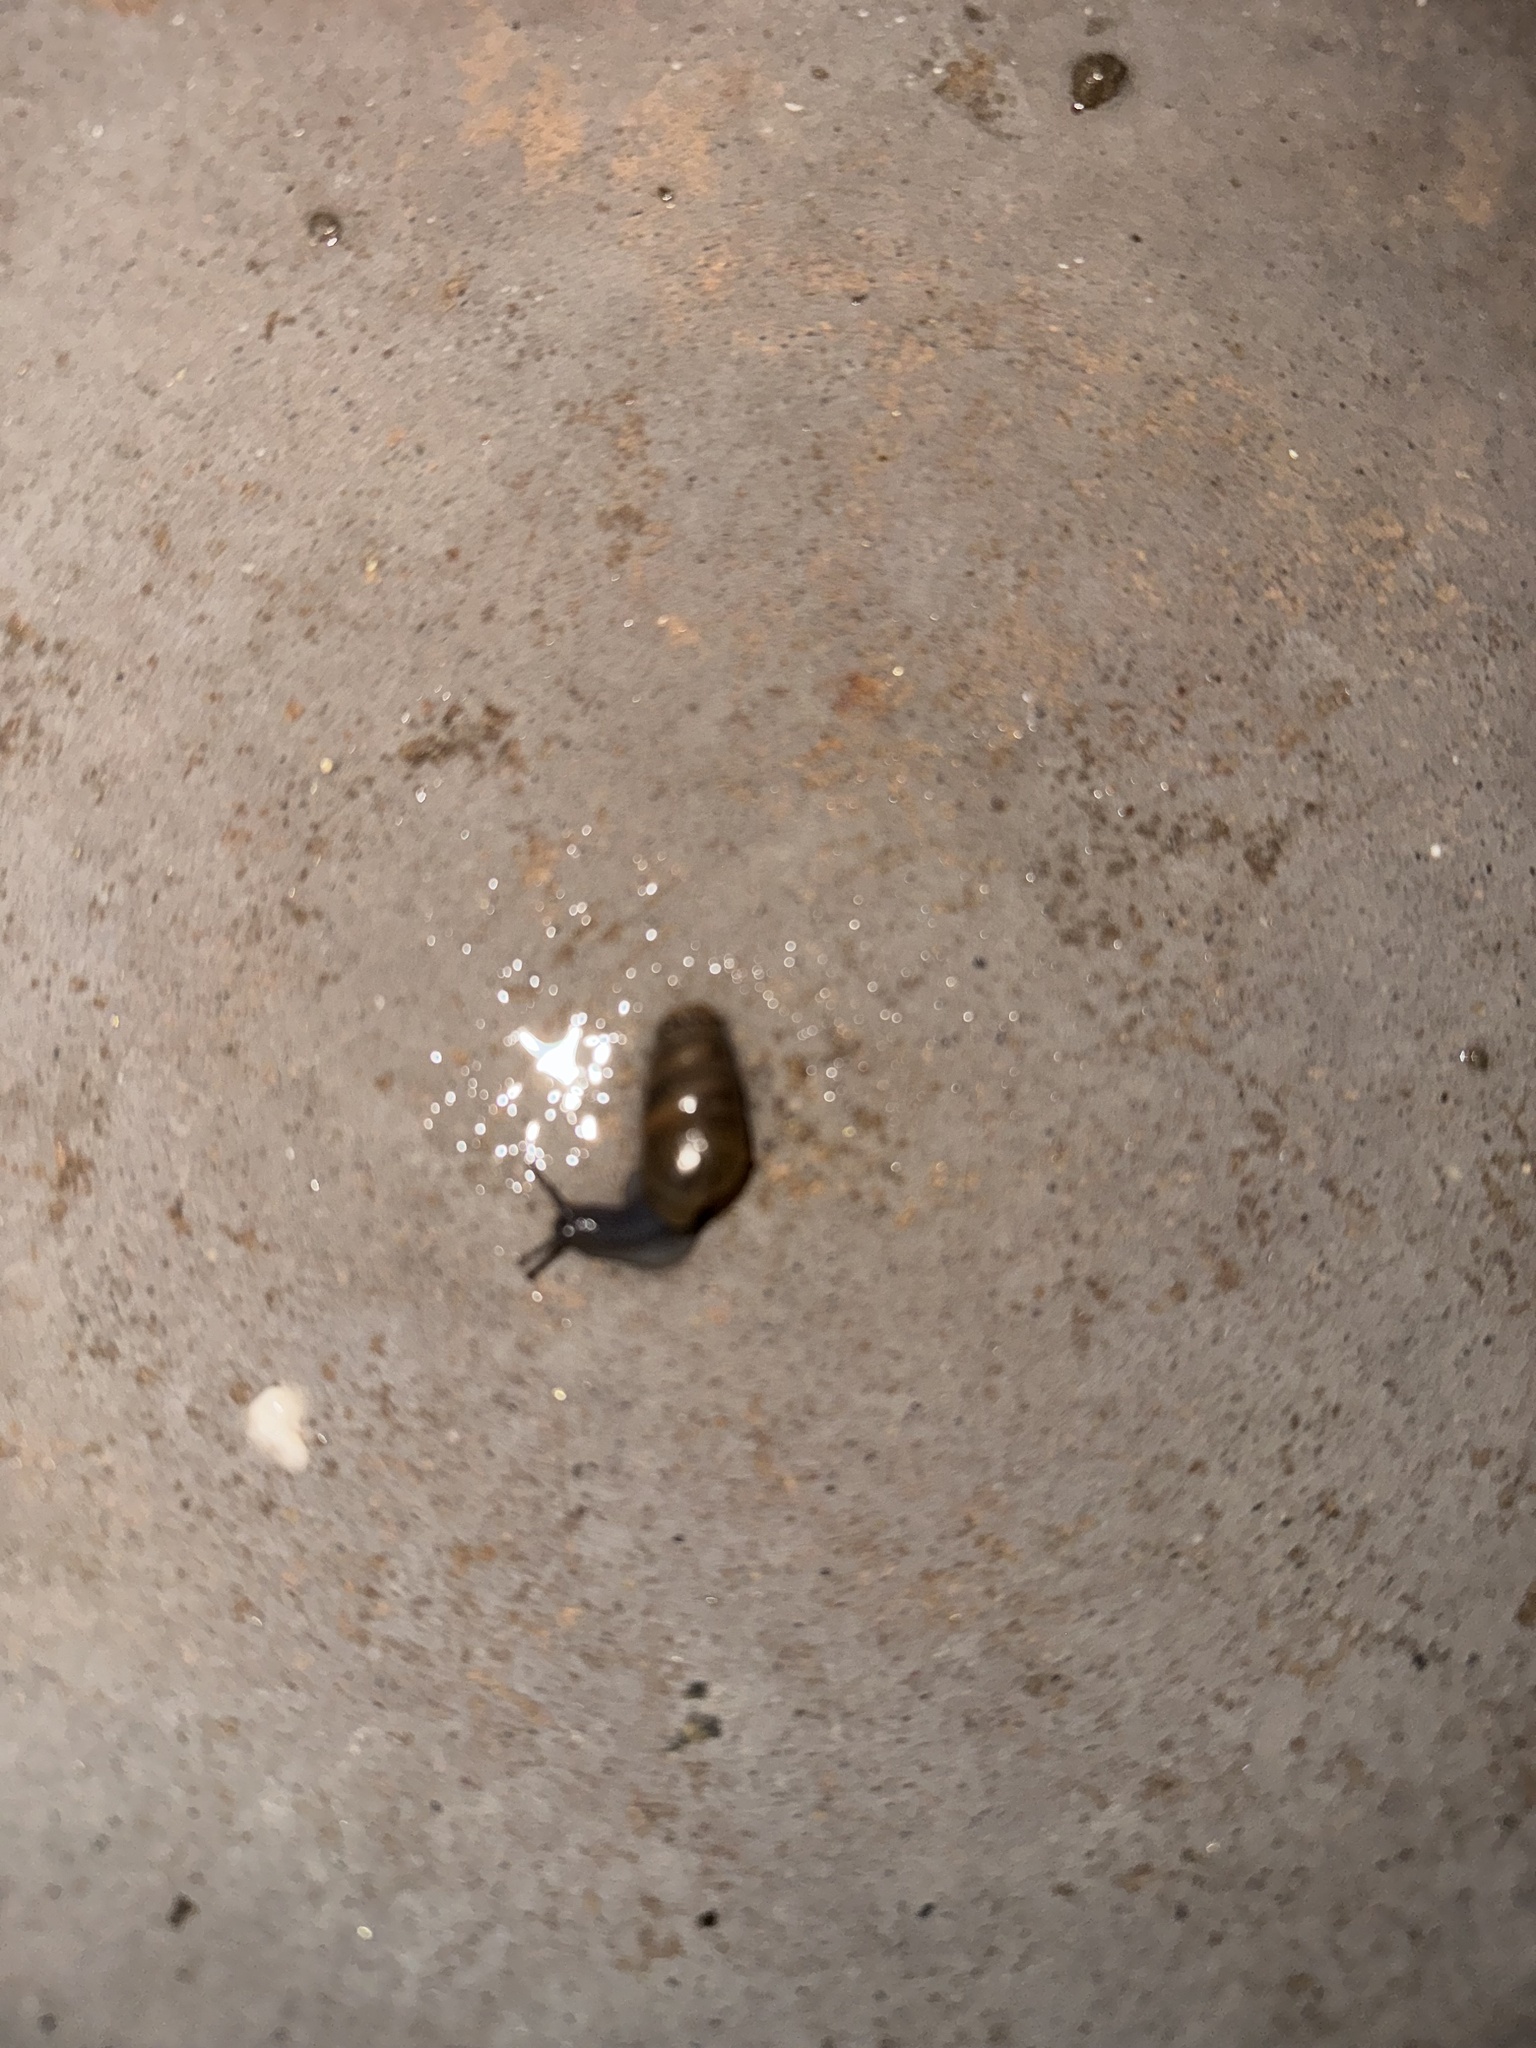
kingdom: Animalia
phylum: Mollusca
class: Gastropoda
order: Stylommatophora
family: Achatinidae
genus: Rumina
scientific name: Rumina decollata
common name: Decollate snail
